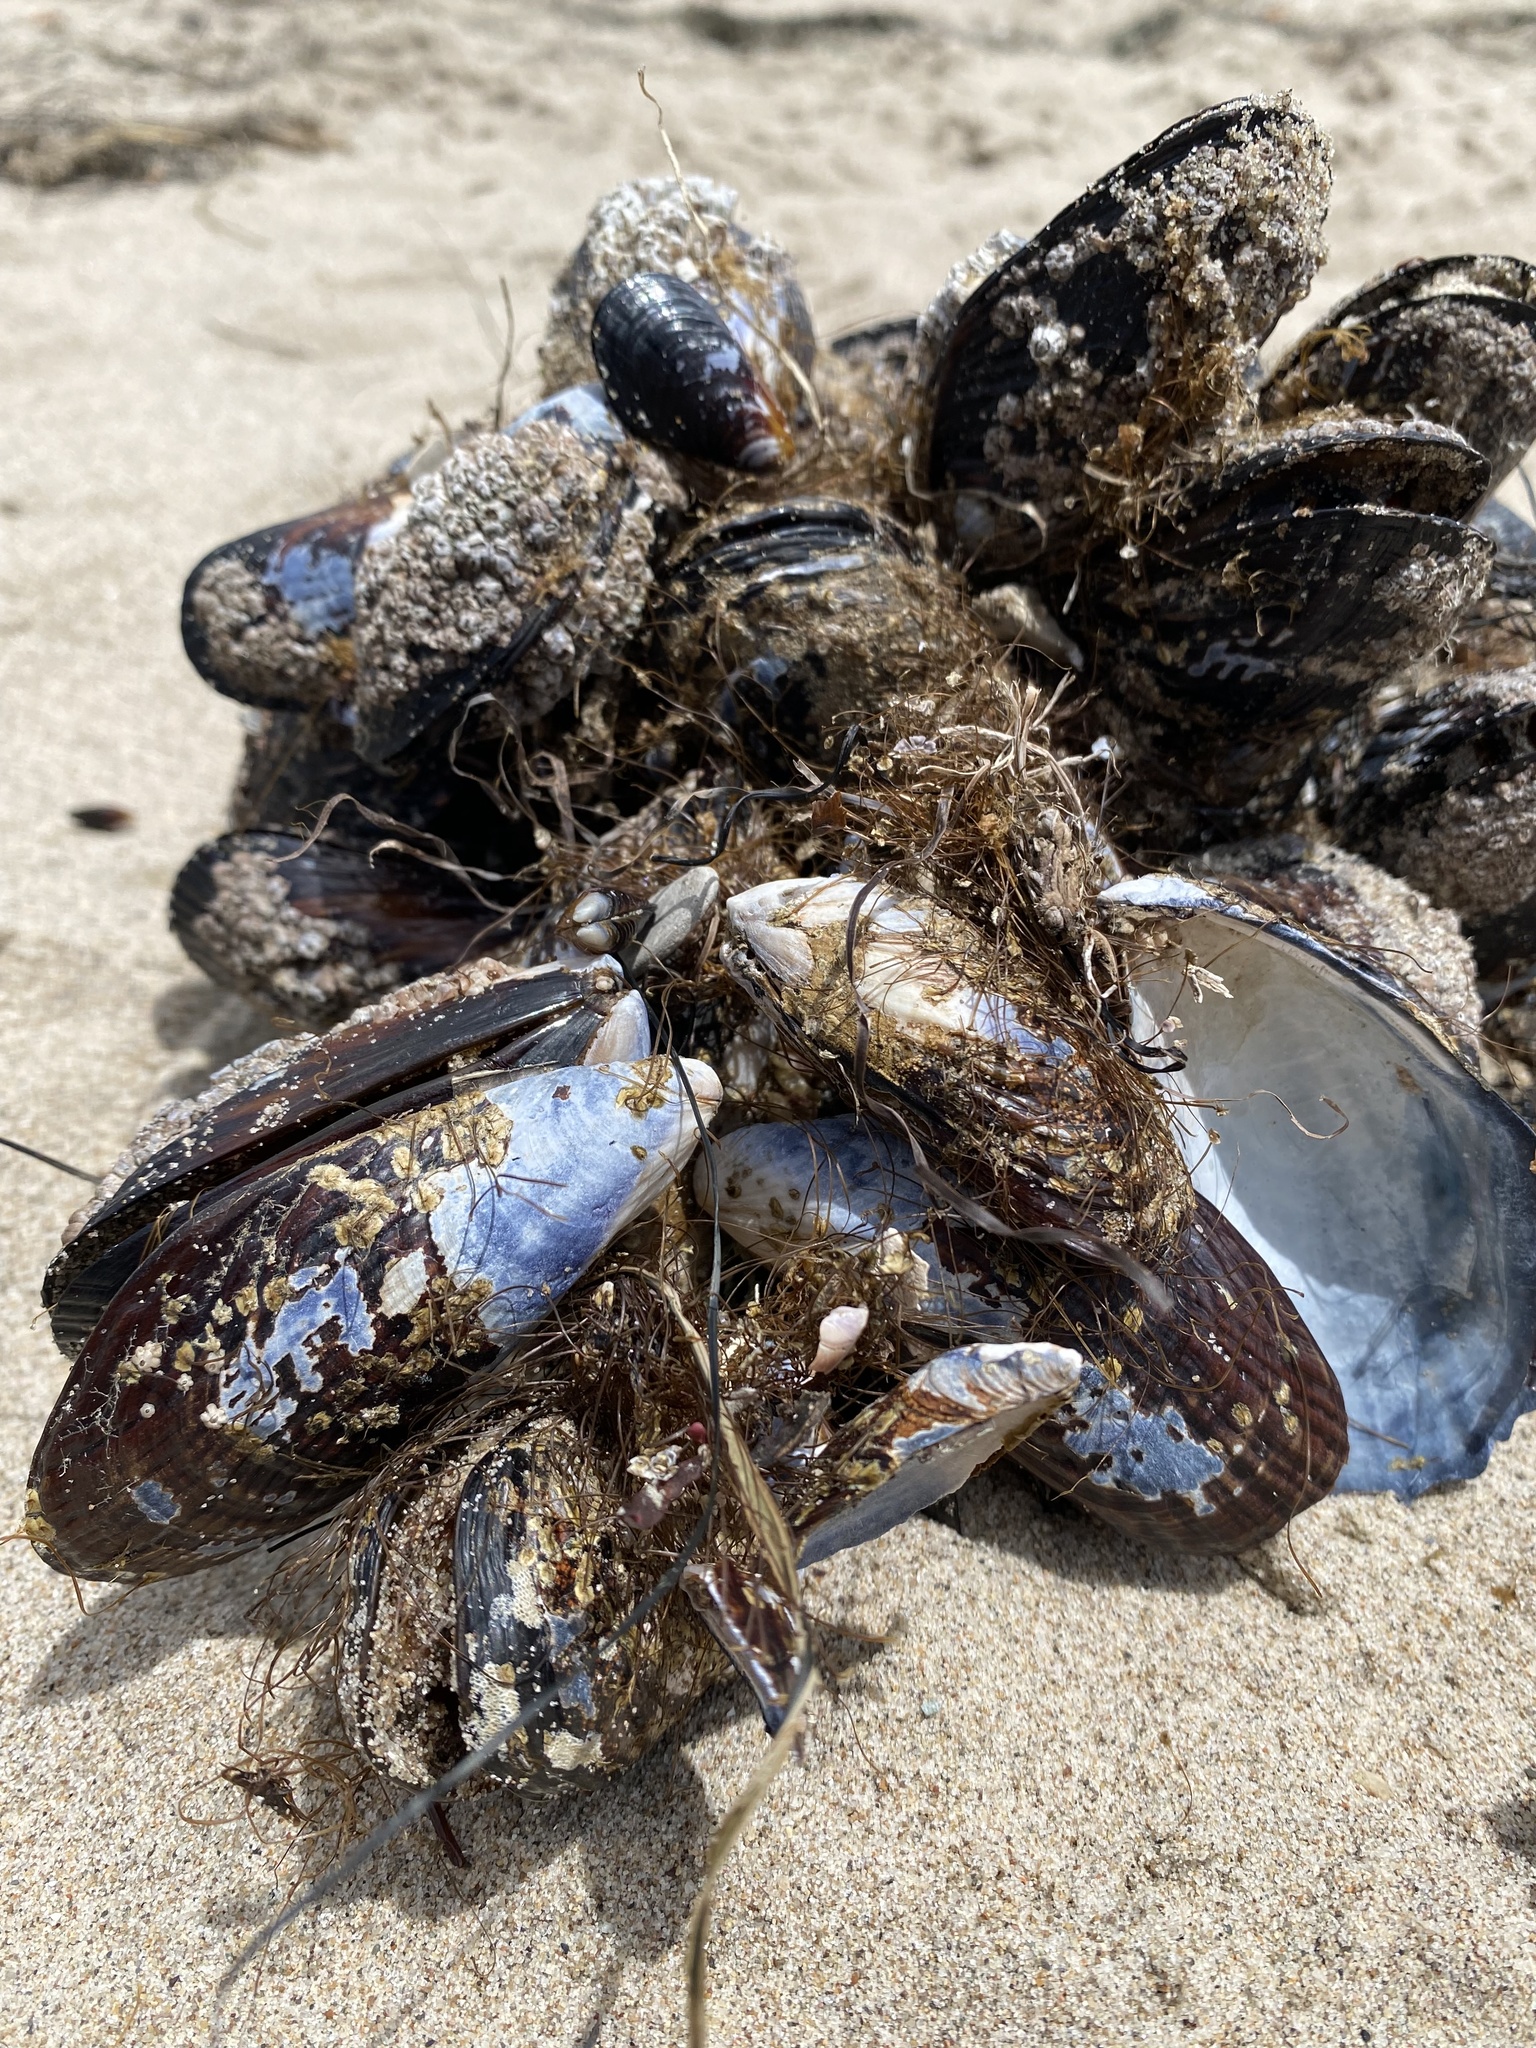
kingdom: Animalia
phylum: Mollusca
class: Bivalvia
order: Mytilida
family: Mytilidae
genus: Mytilus
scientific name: Mytilus californianus
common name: California mussel
